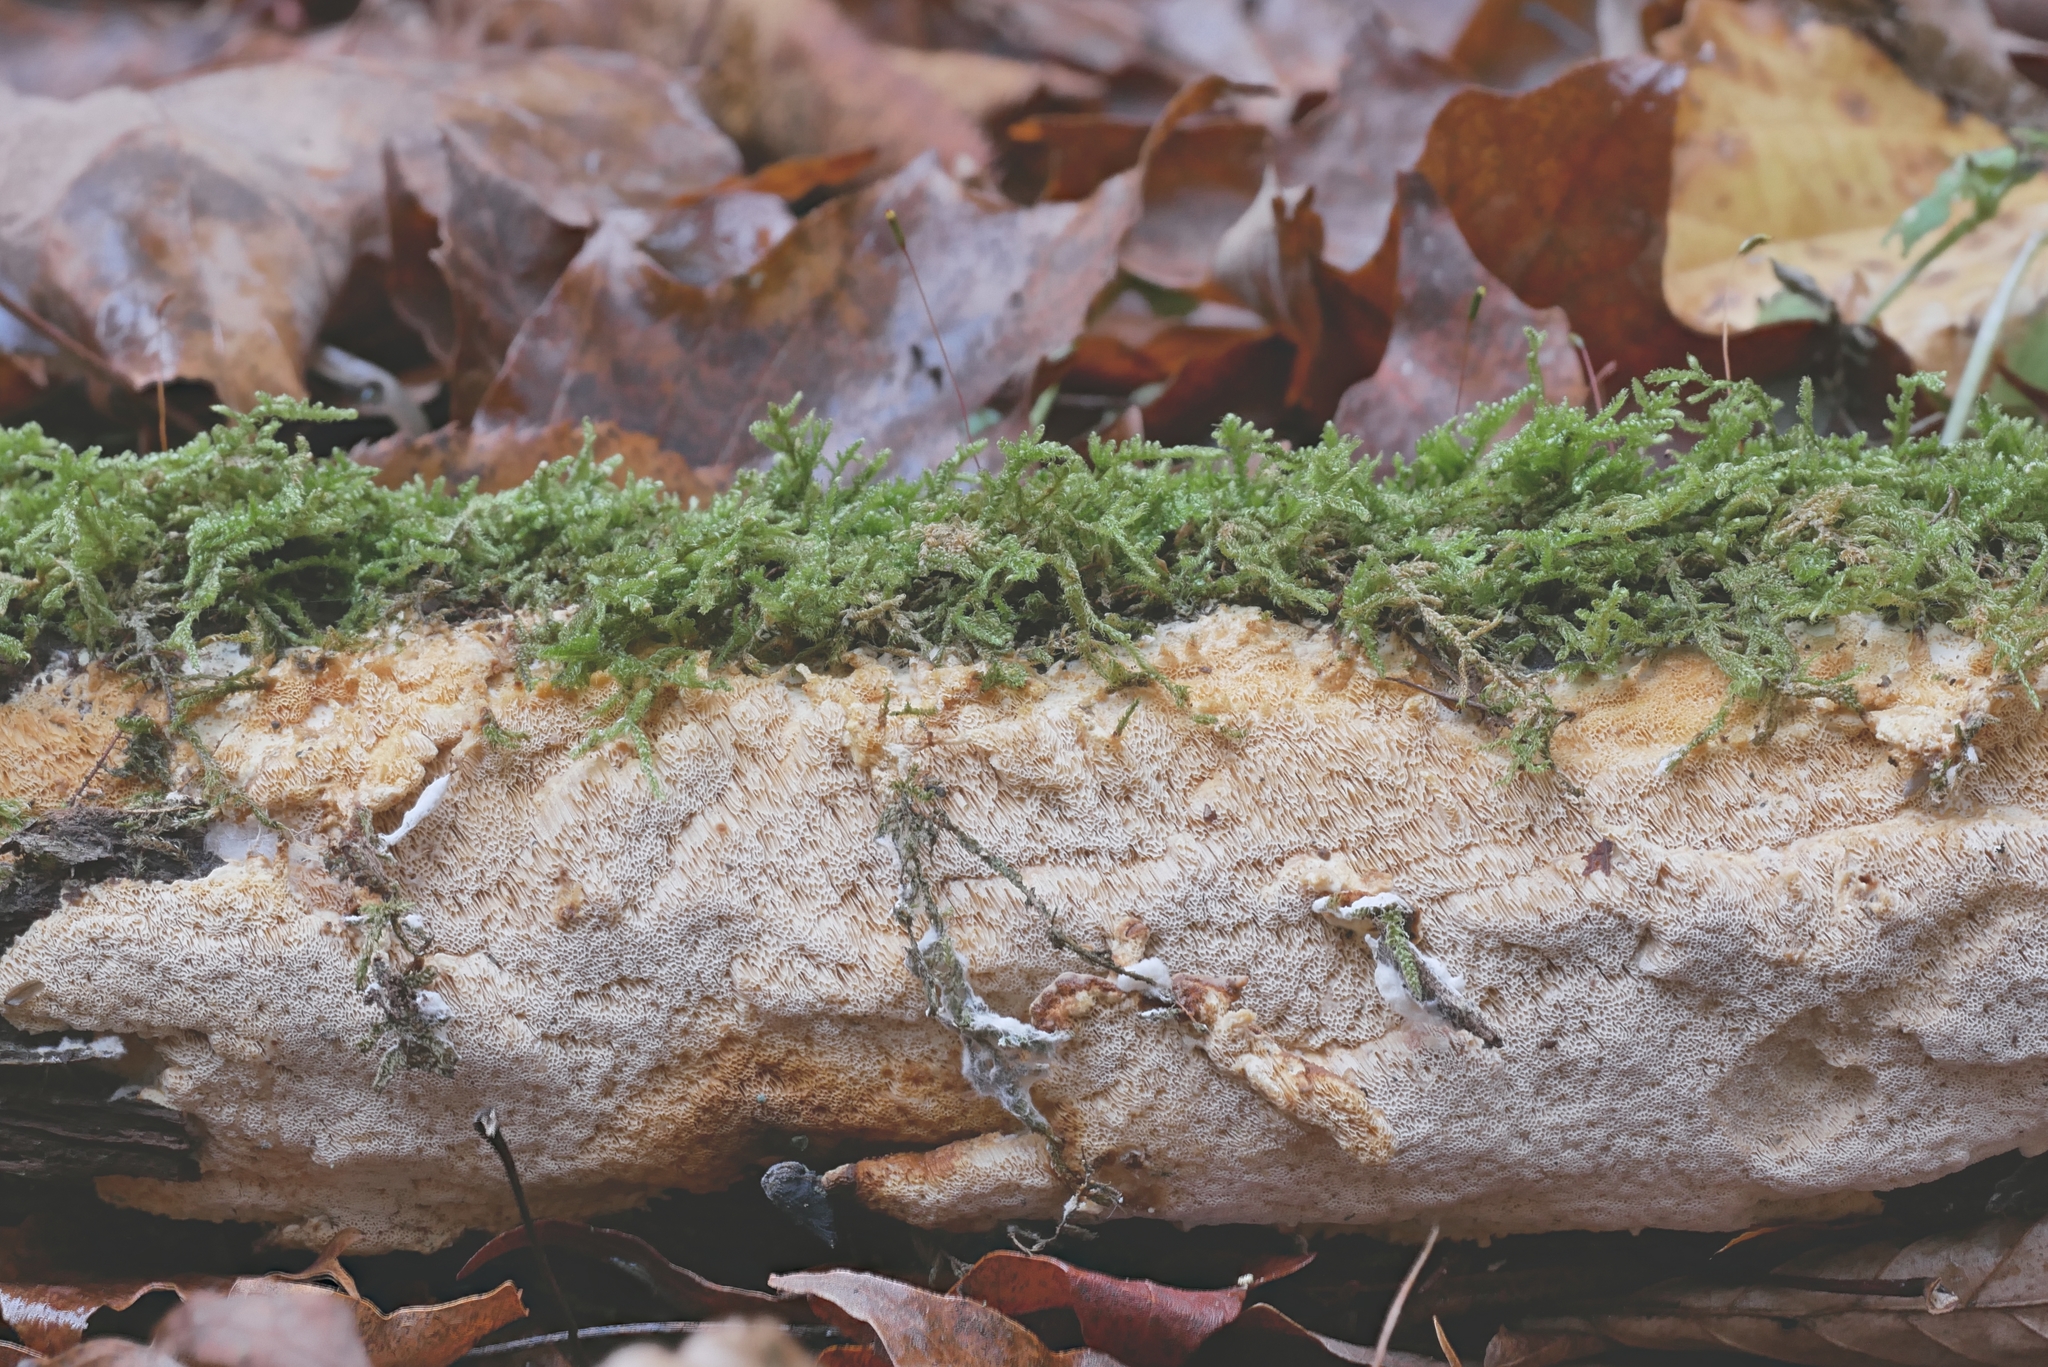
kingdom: Fungi
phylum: Basidiomycota
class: Agaricomycetes
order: Polyporales
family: Polyporaceae
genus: Poriella
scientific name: Poriella subacida
